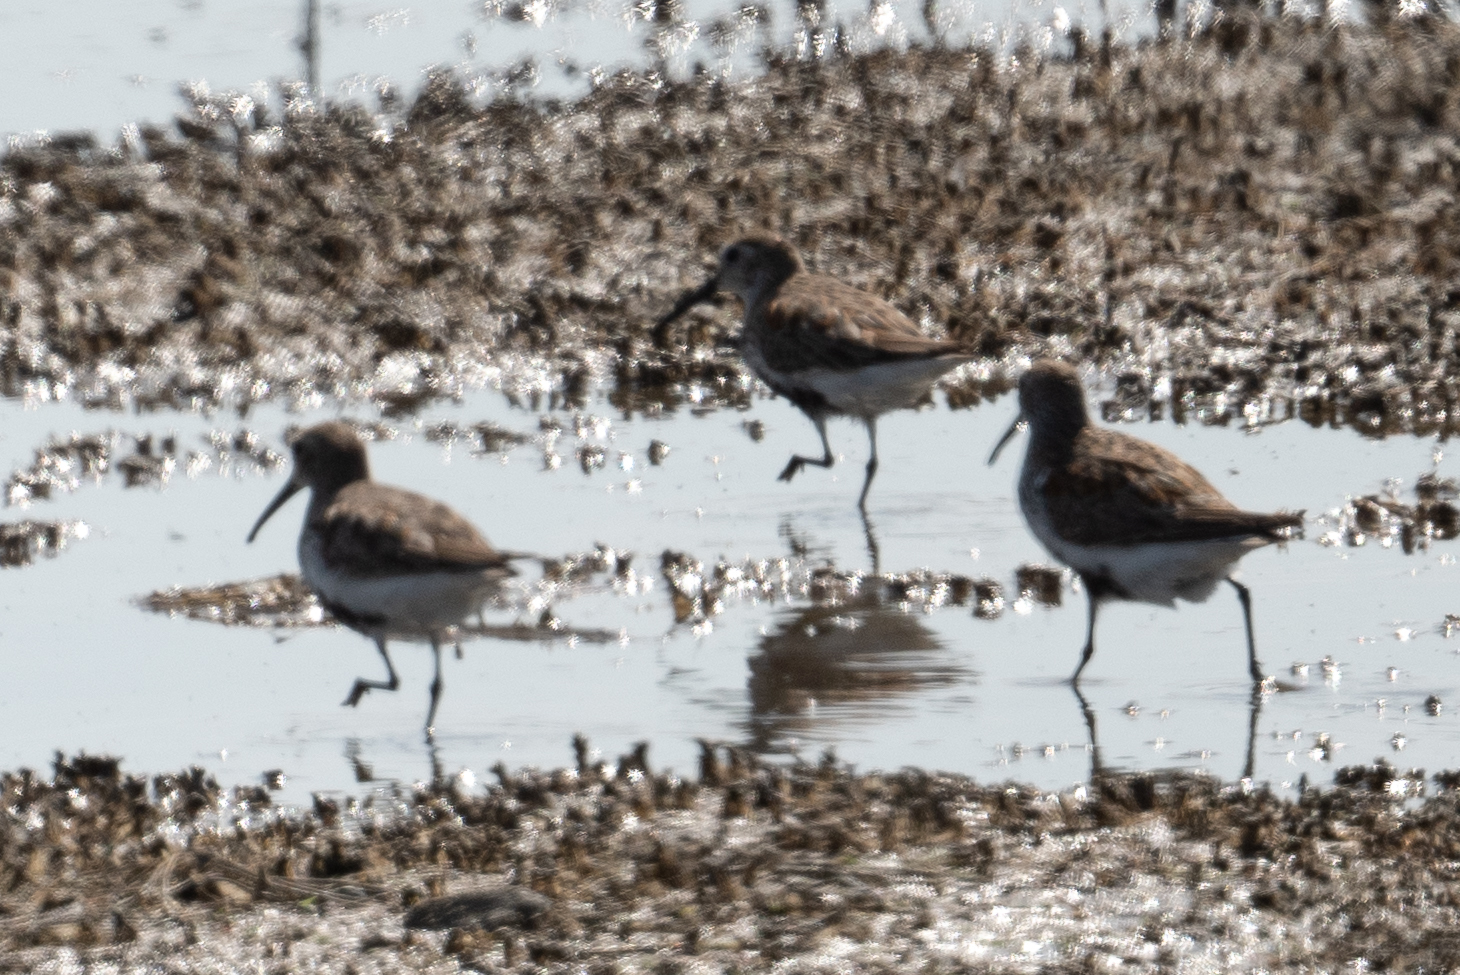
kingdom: Animalia
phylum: Chordata
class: Aves
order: Charadriiformes
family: Scolopacidae
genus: Calidris
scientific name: Calidris alpina
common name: Dunlin
